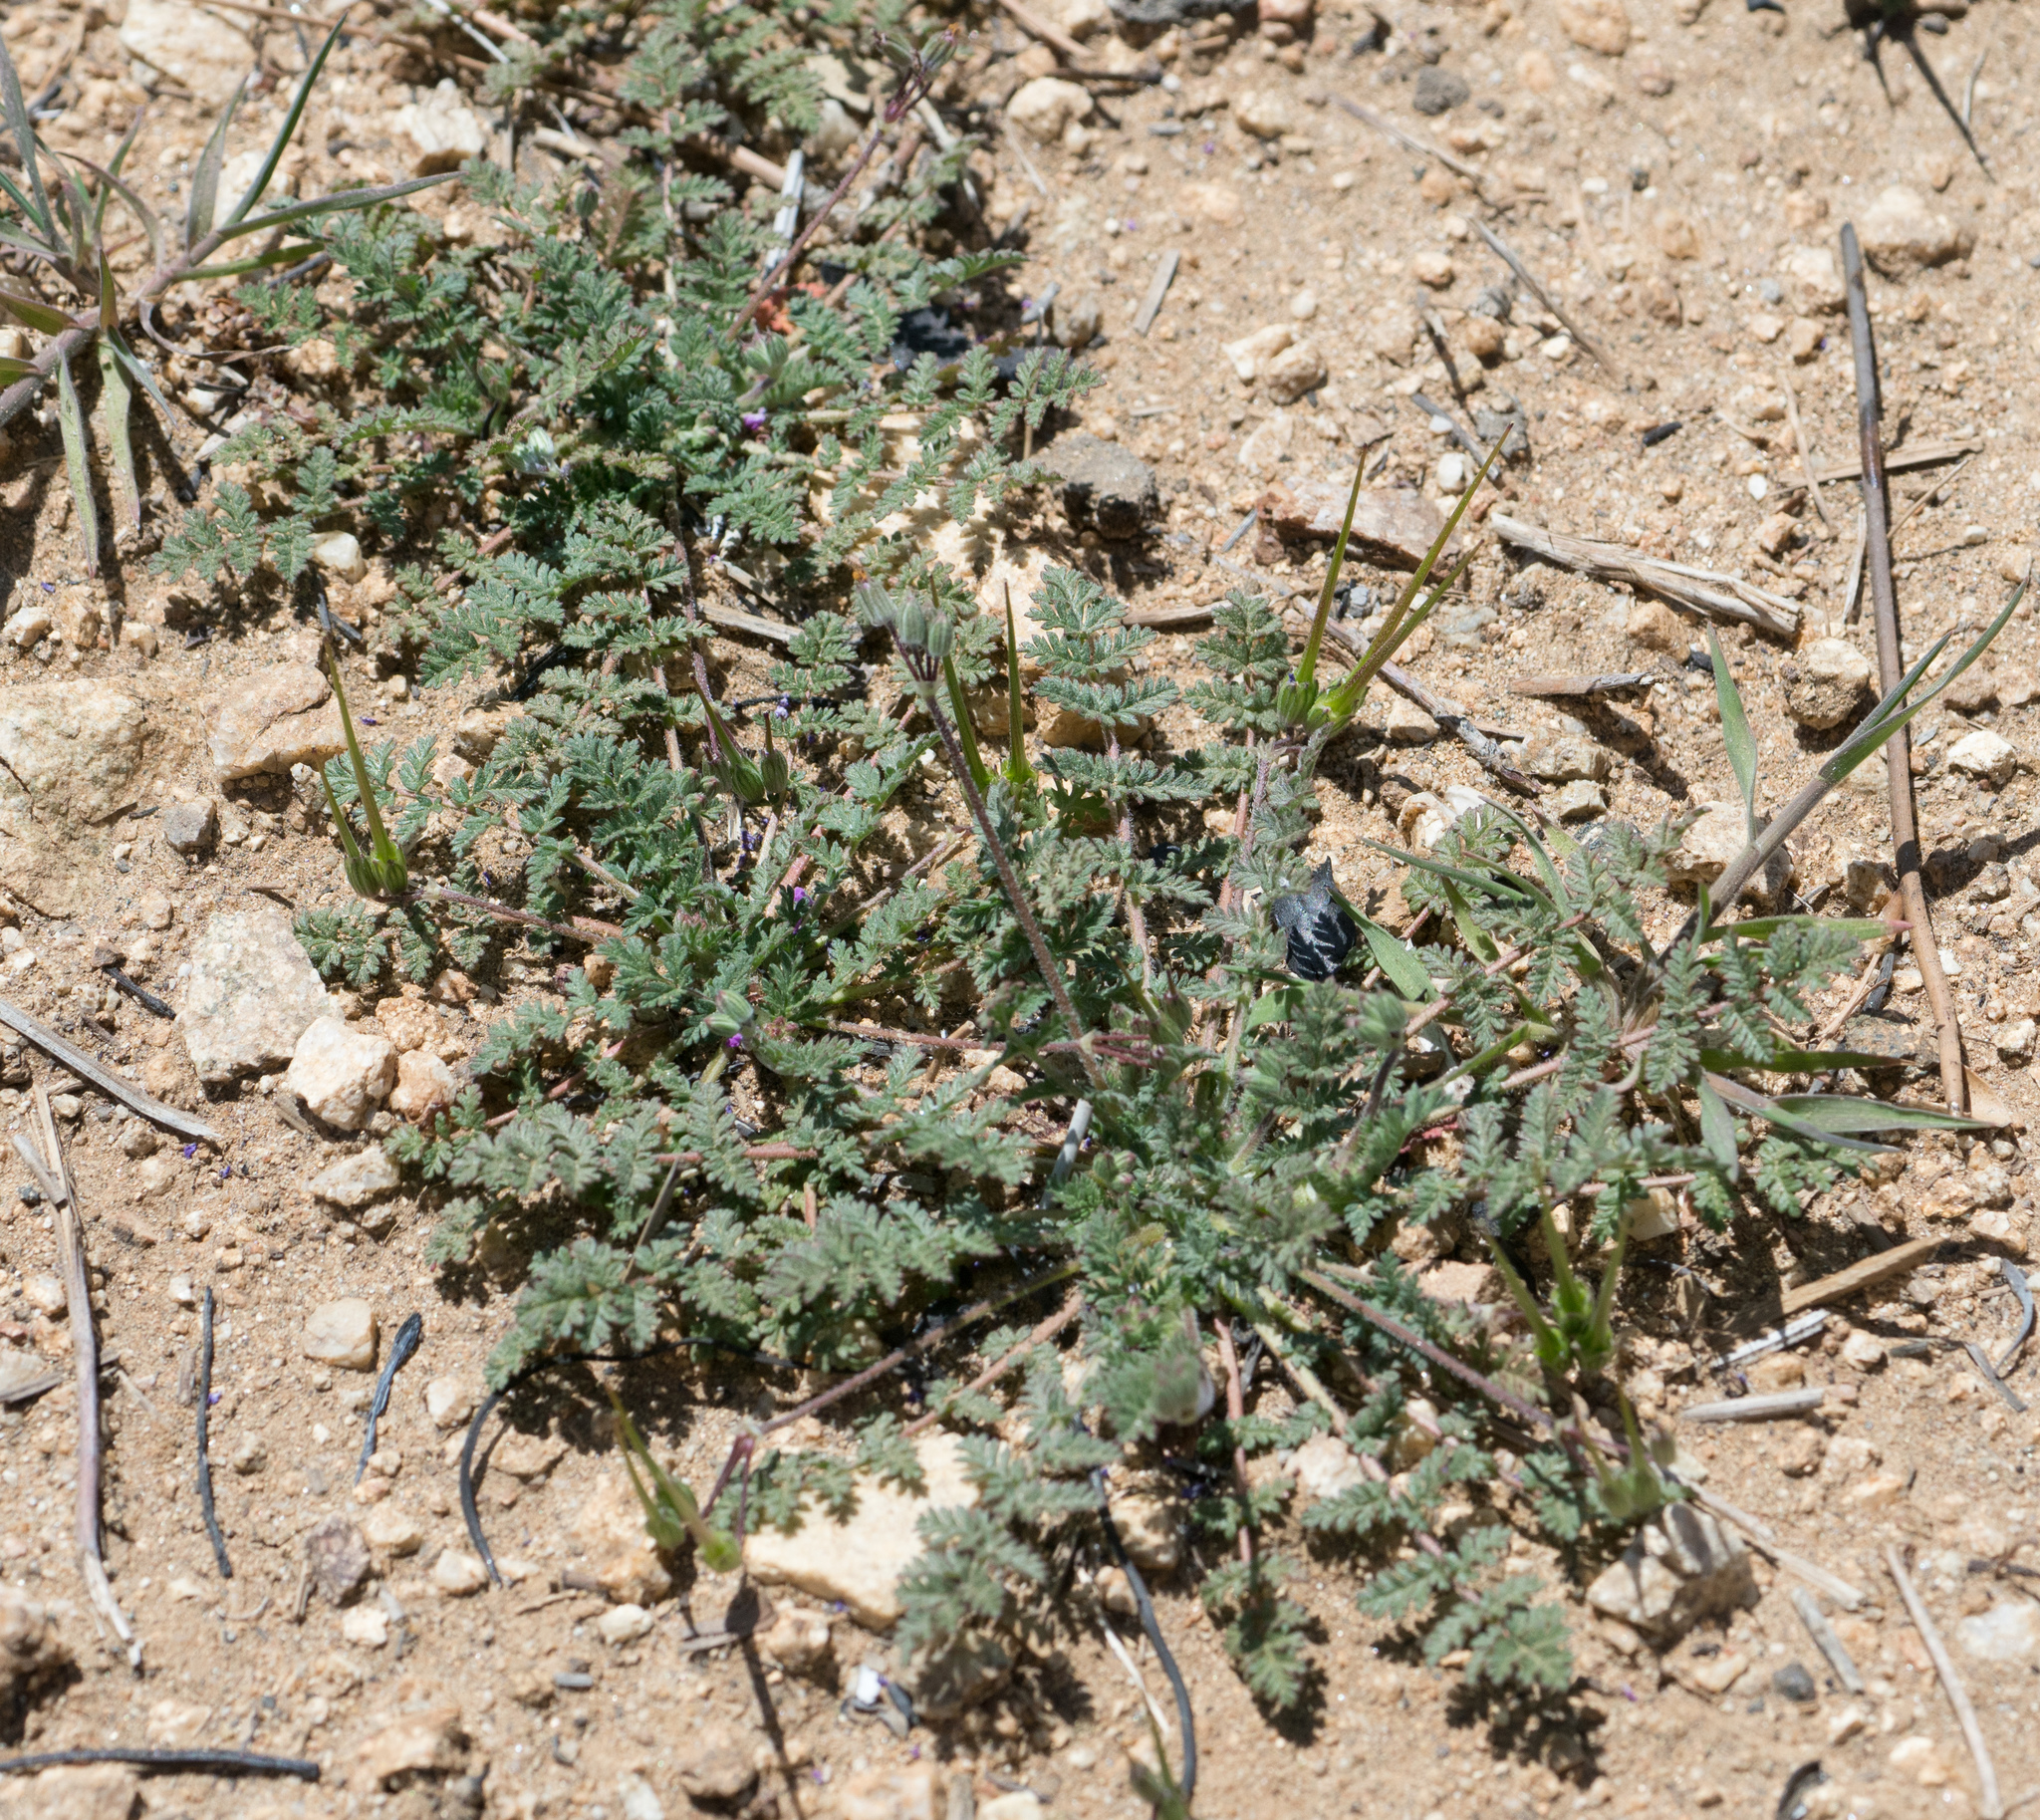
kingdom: Plantae
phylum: Tracheophyta
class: Magnoliopsida
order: Geraniales
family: Geraniaceae
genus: Erodium
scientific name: Erodium cicutarium
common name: Common stork's-bill
